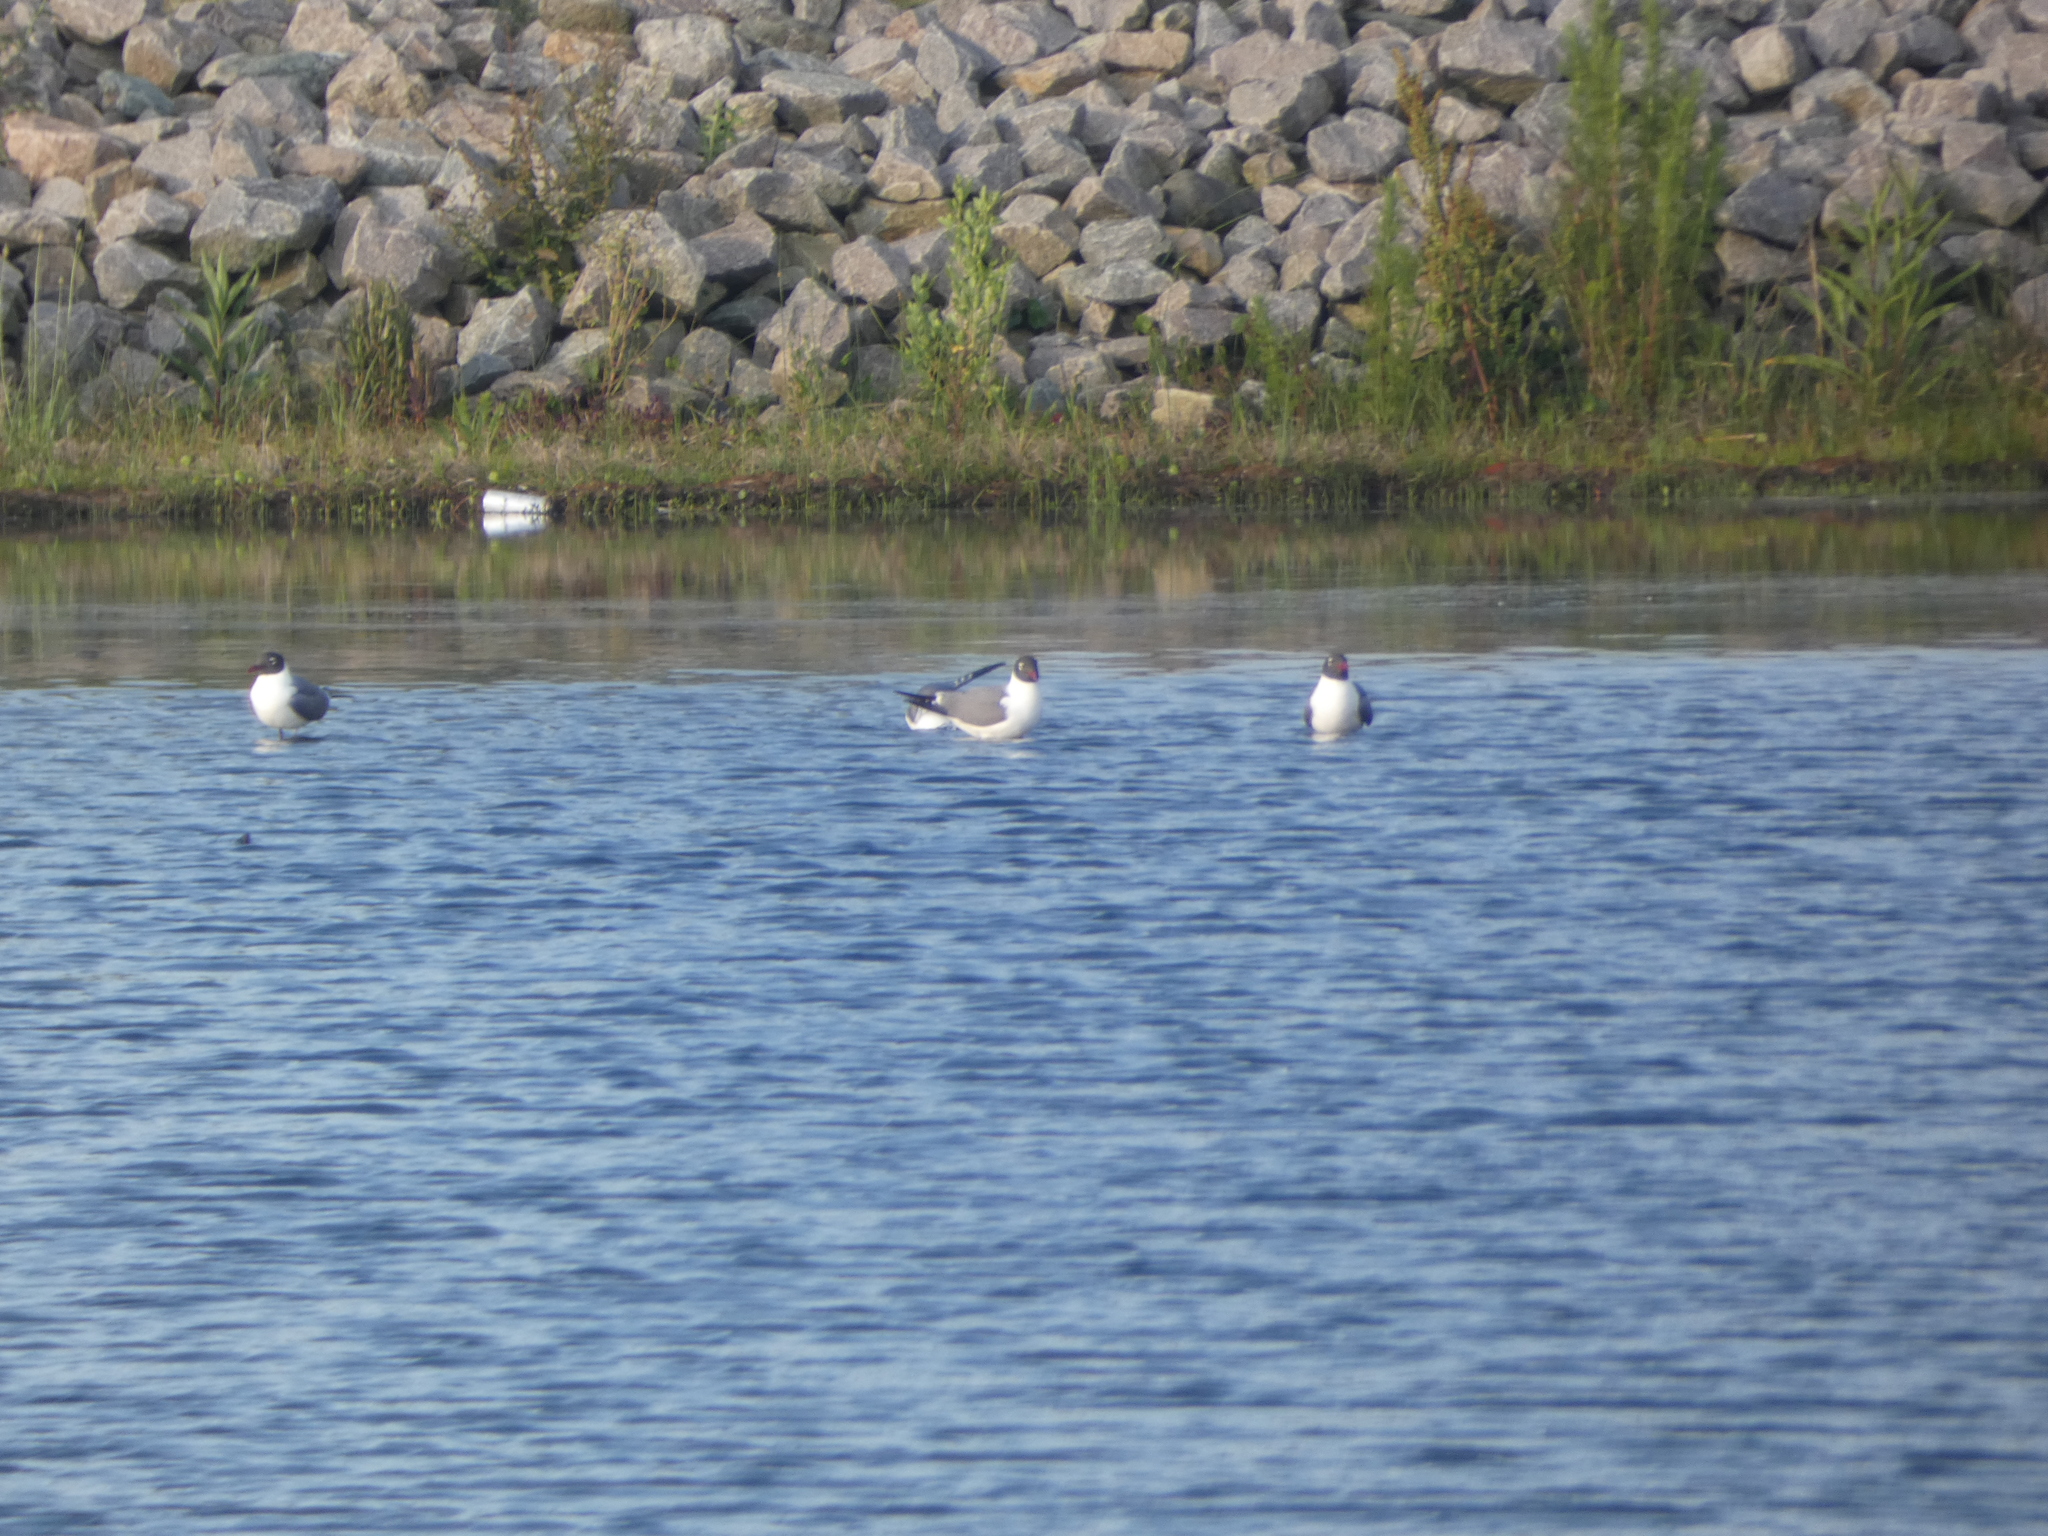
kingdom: Animalia
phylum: Chordata
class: Aves
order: Charadriiformes
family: Laridae
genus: Leucophaeus
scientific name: Leucophaeus atricilla
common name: Laughing gull
